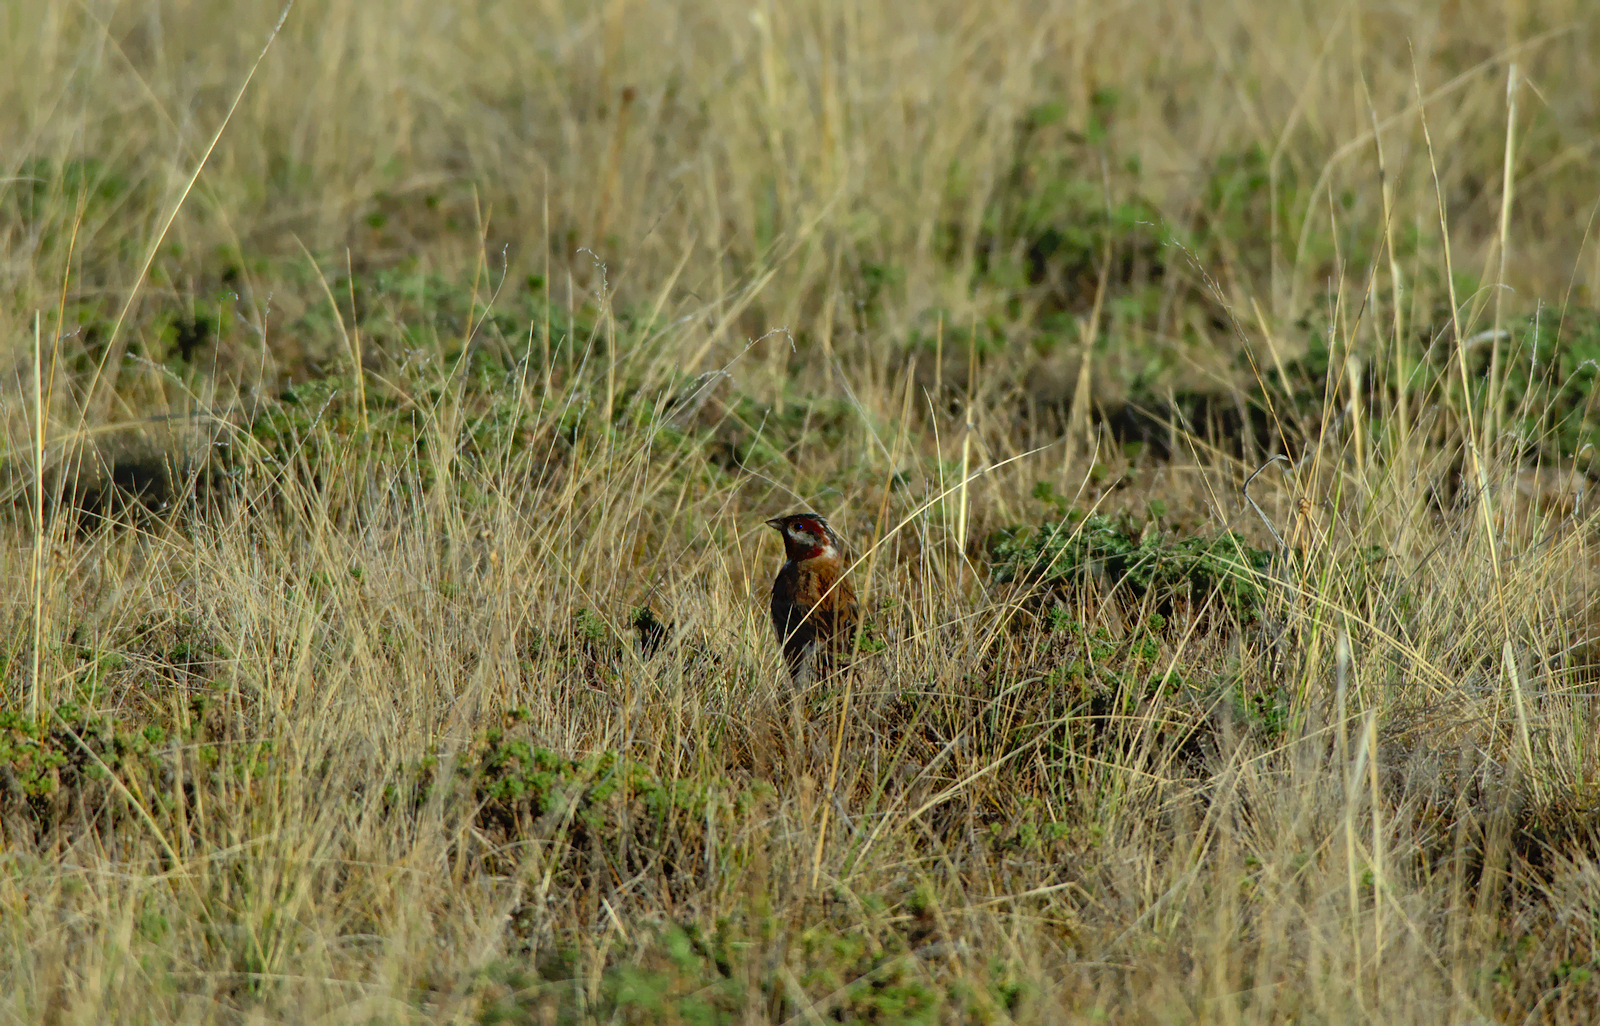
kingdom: Animalia
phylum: Chordata
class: Aves
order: Passeriformes
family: Emberizidae
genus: Emberiza
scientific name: Emberiza leucocephalos
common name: Pine bunting
